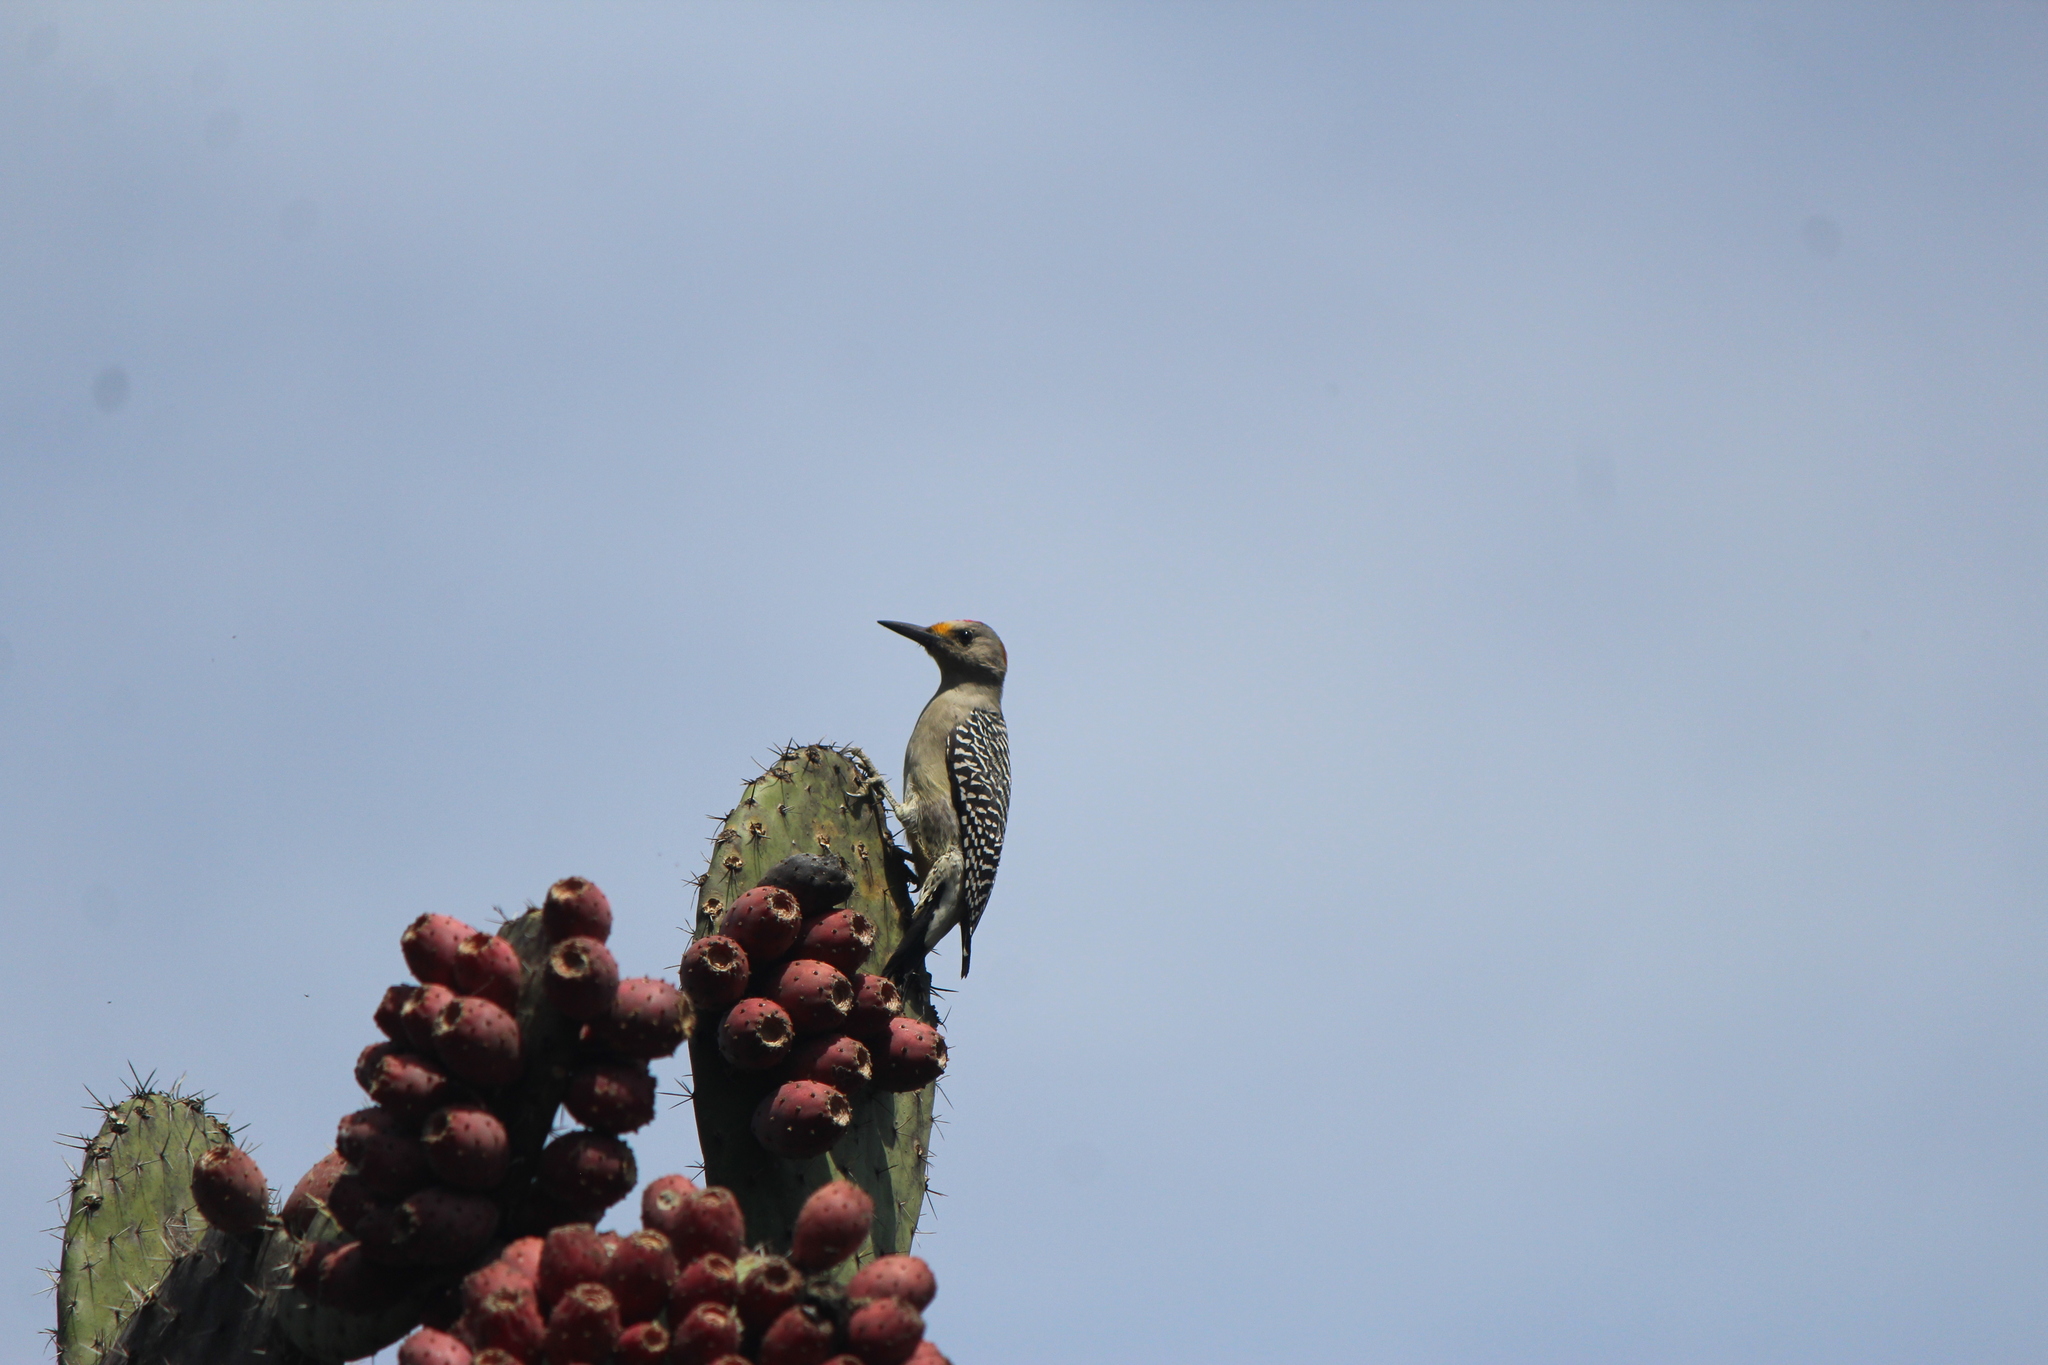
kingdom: Animalia
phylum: Chordata
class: Aves
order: Piciformes
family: Picidae
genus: Melanerpes
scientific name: Melanerpes aurifrons
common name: Golden-fronted woodpecker
